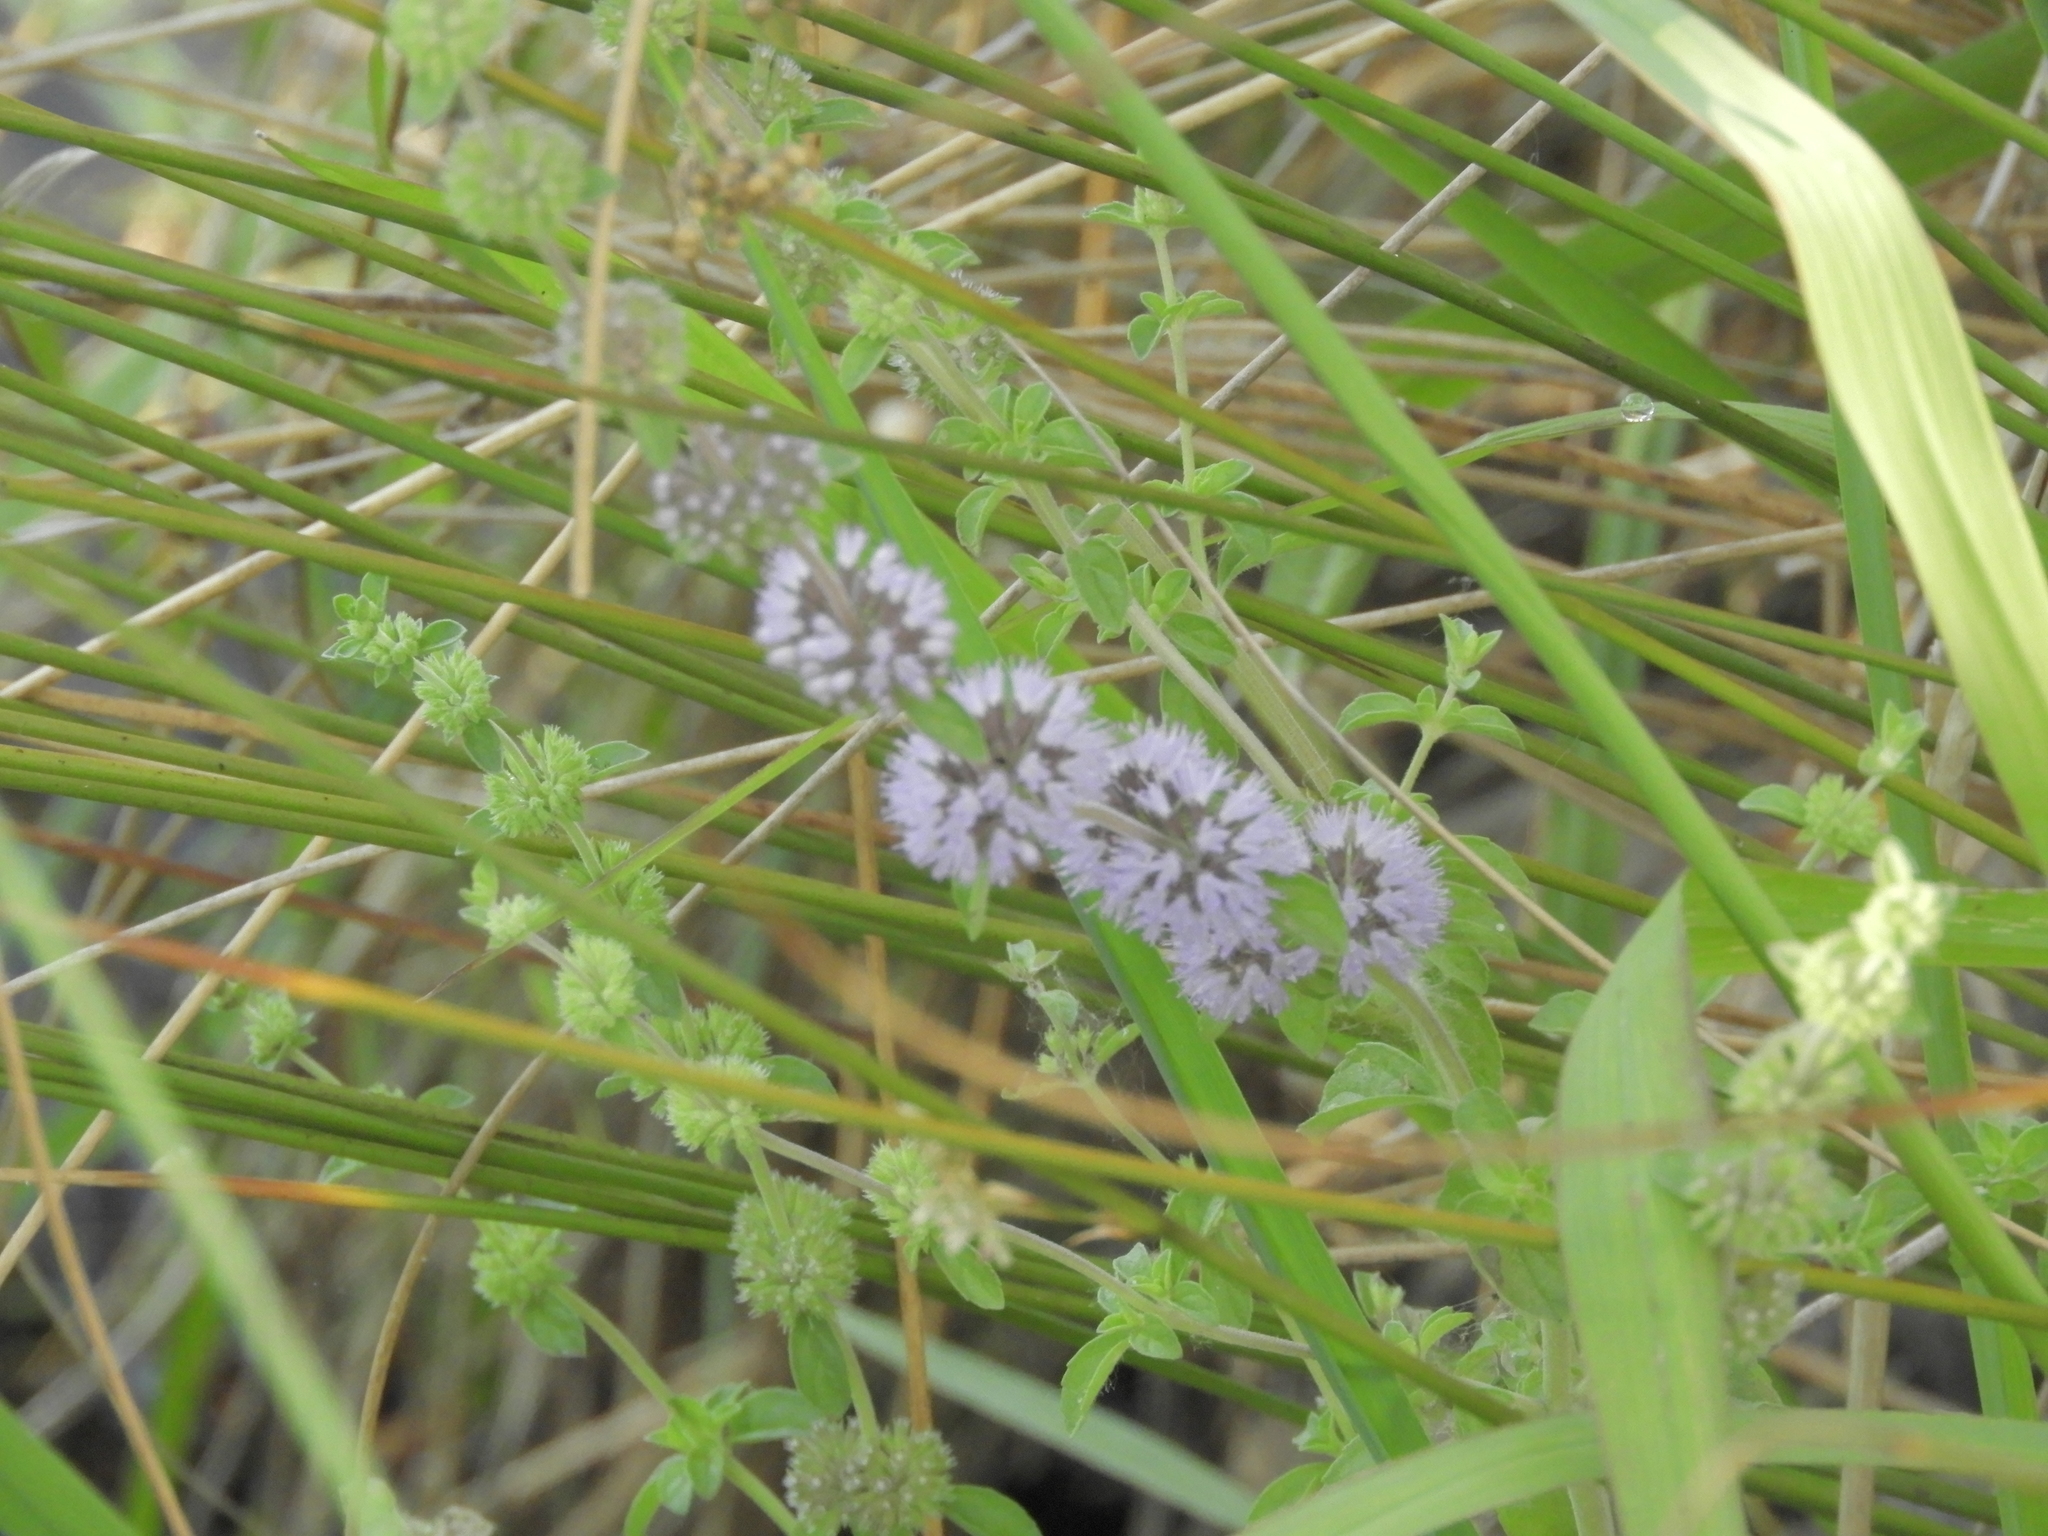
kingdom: Plantae
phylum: Tracheophyta
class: Magnoliopsida
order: Lamiales
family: Lamiaceae
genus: Mentha
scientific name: Mentha pulegium
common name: Pennyroyal
